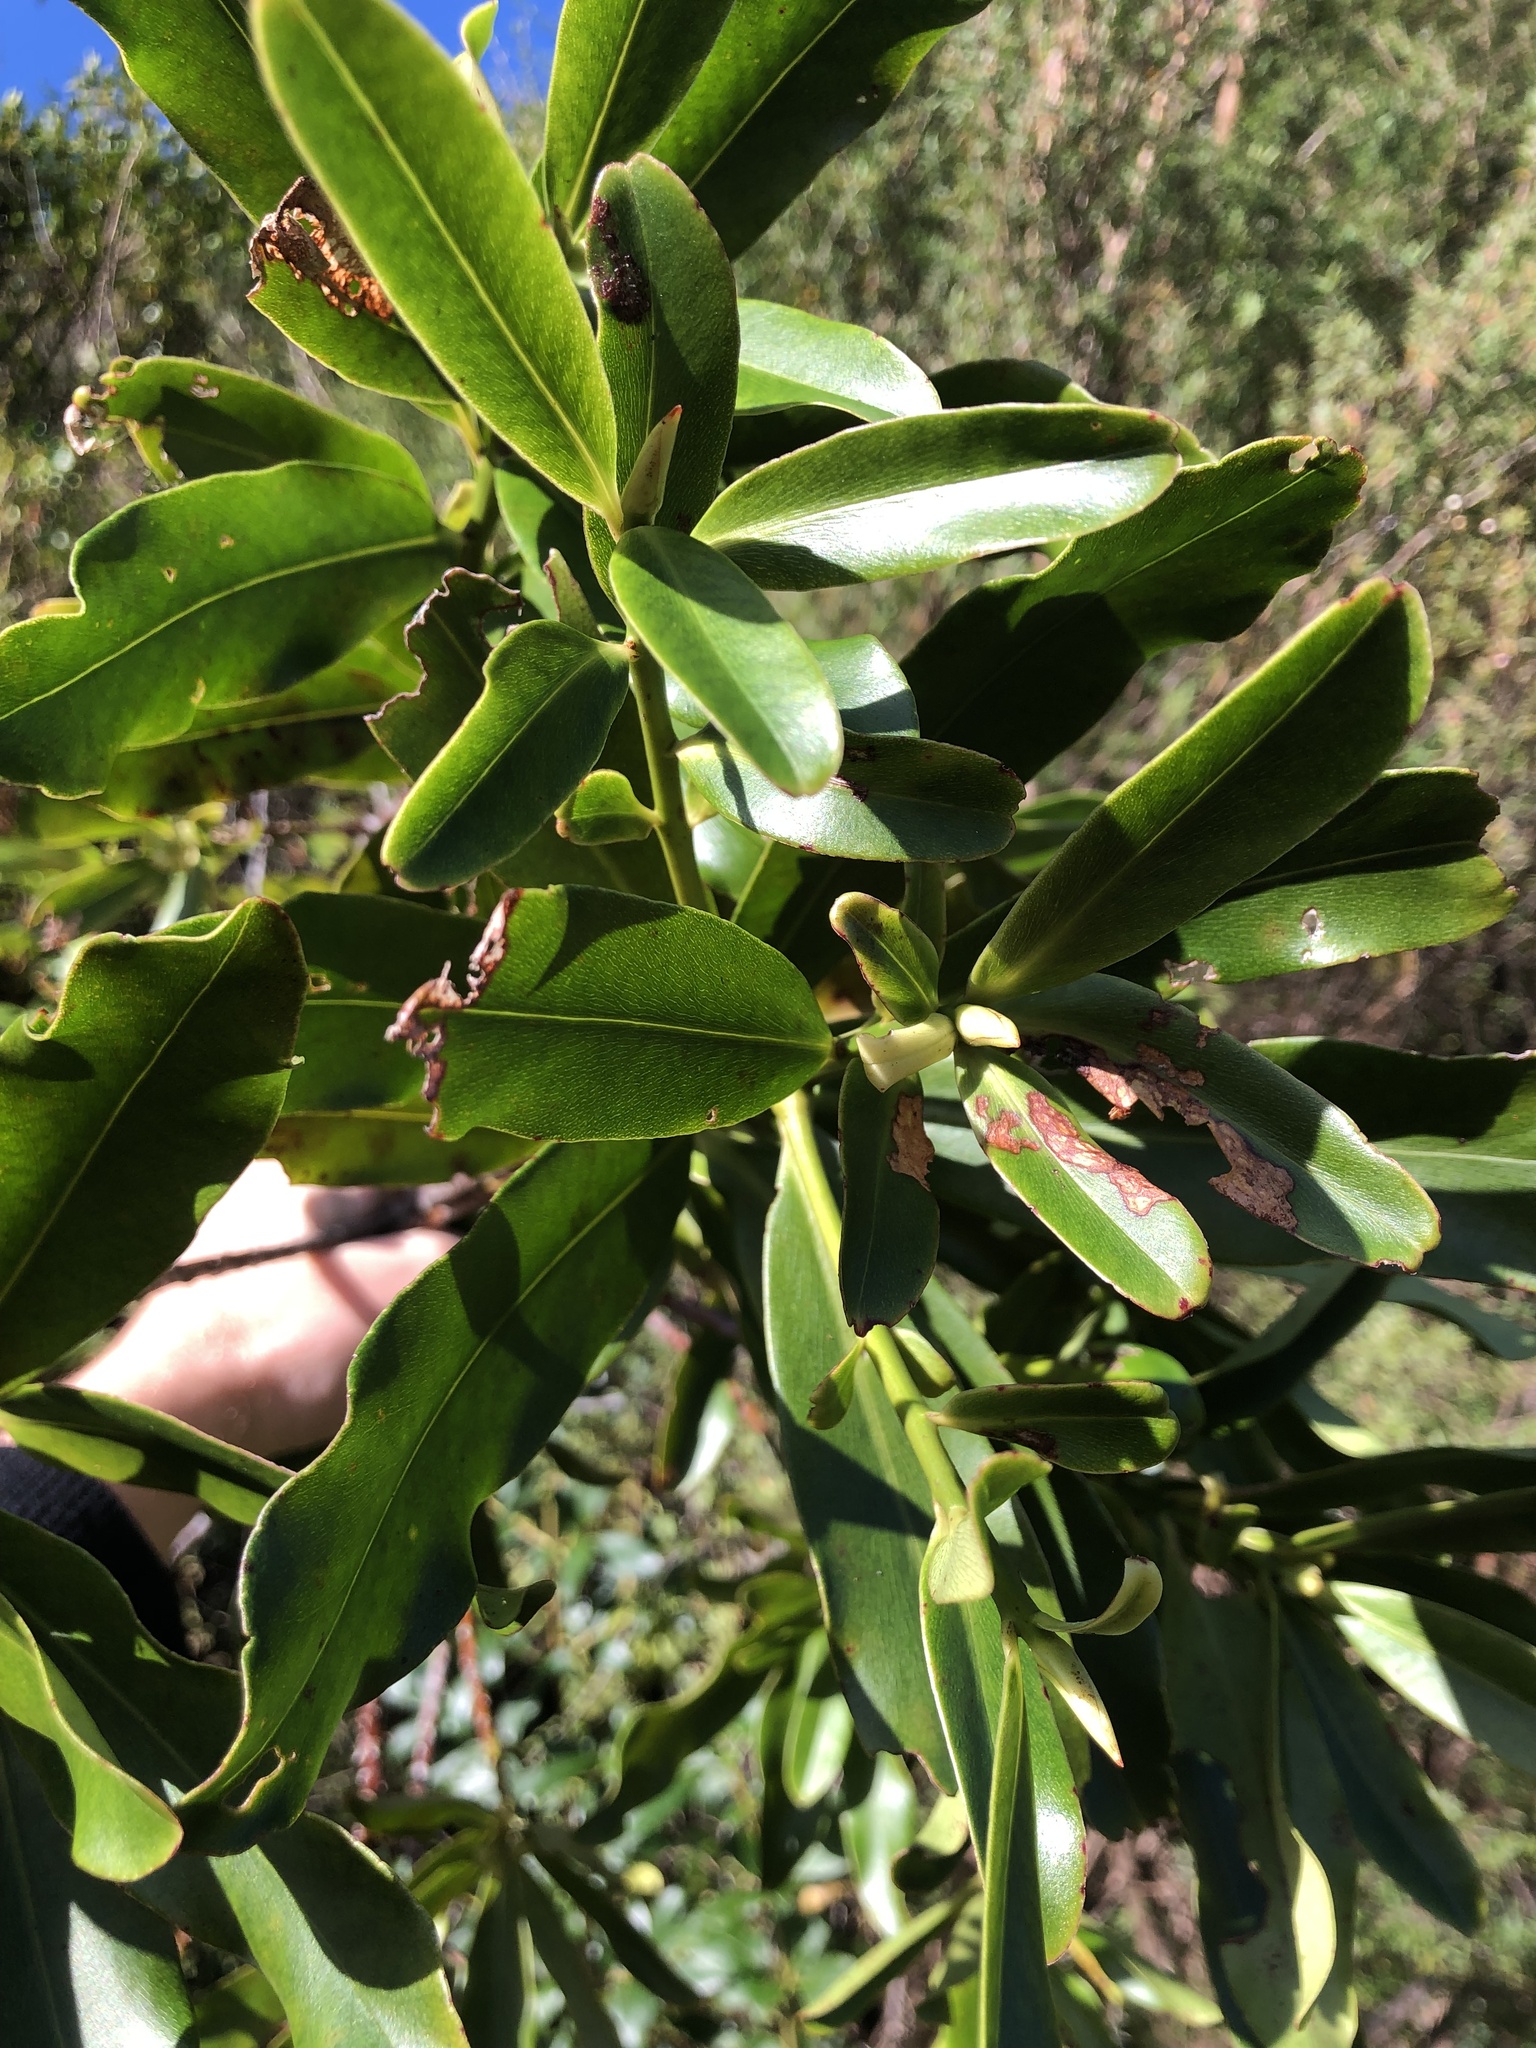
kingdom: Plantae
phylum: Tracheophyta
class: Magnoliopsida
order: Ericales
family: Primulaceae
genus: Myrsine
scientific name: Myrsine salicina
